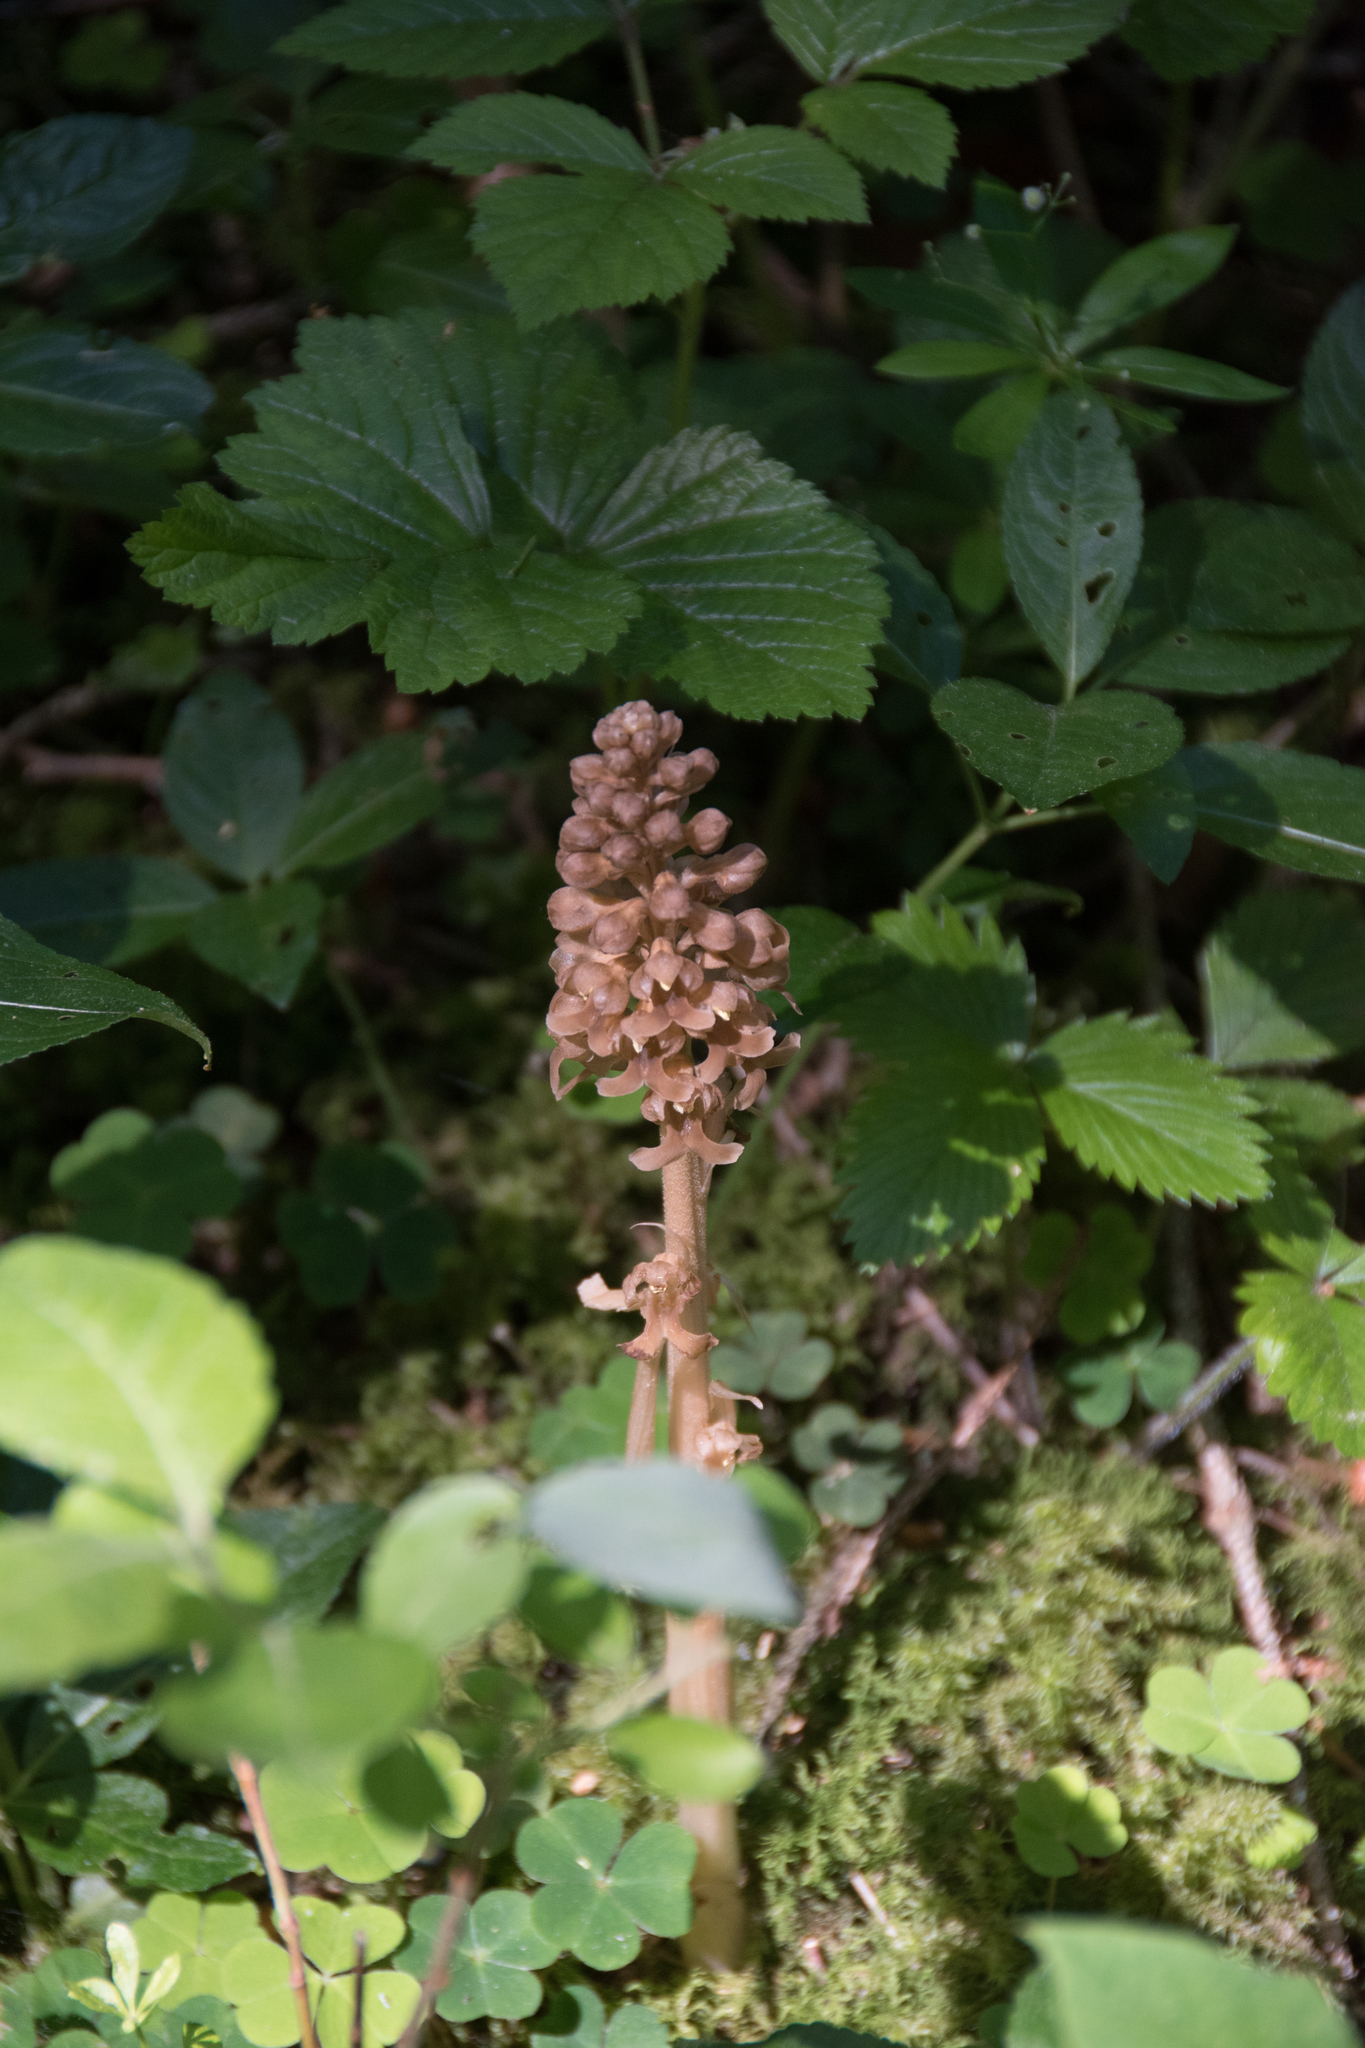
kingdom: Plantae
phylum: Tracheophyta
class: Liliopsida
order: Asparagales
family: Orchidaceae
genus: Neottia
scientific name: Neottia nidus-avis
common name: Bird's-nest orchid
